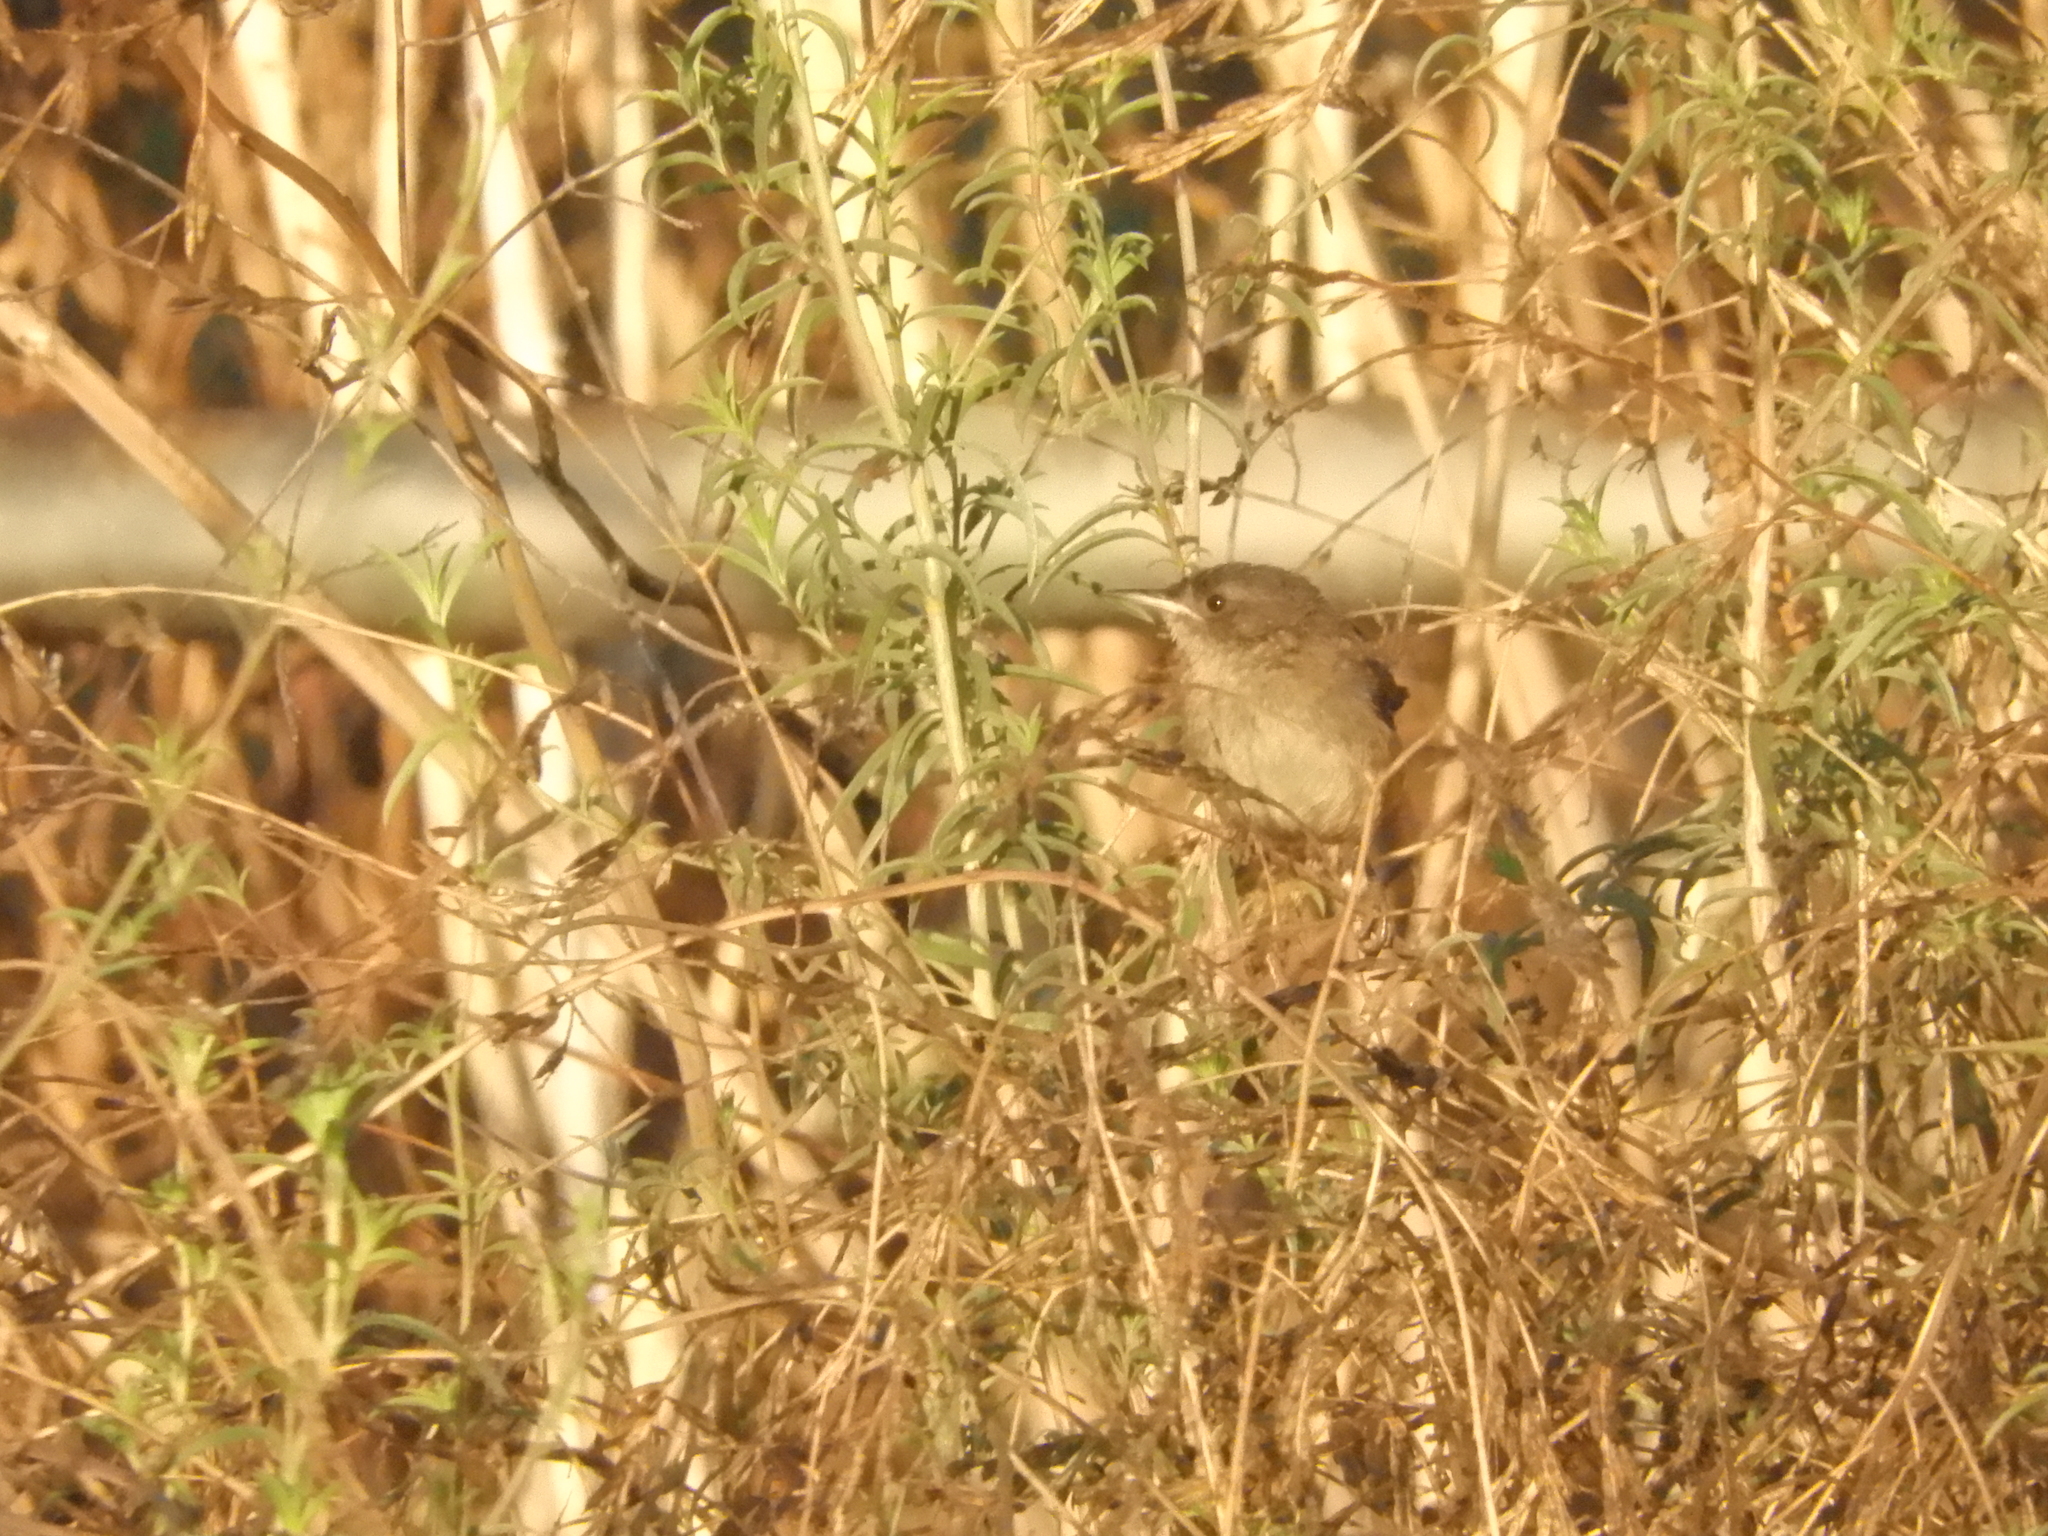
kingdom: Animalia
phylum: Chordata
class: Aves
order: Passeriformes
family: Troglodytidae
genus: Troglodytes
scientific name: Troglodytes aedon
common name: House wren
